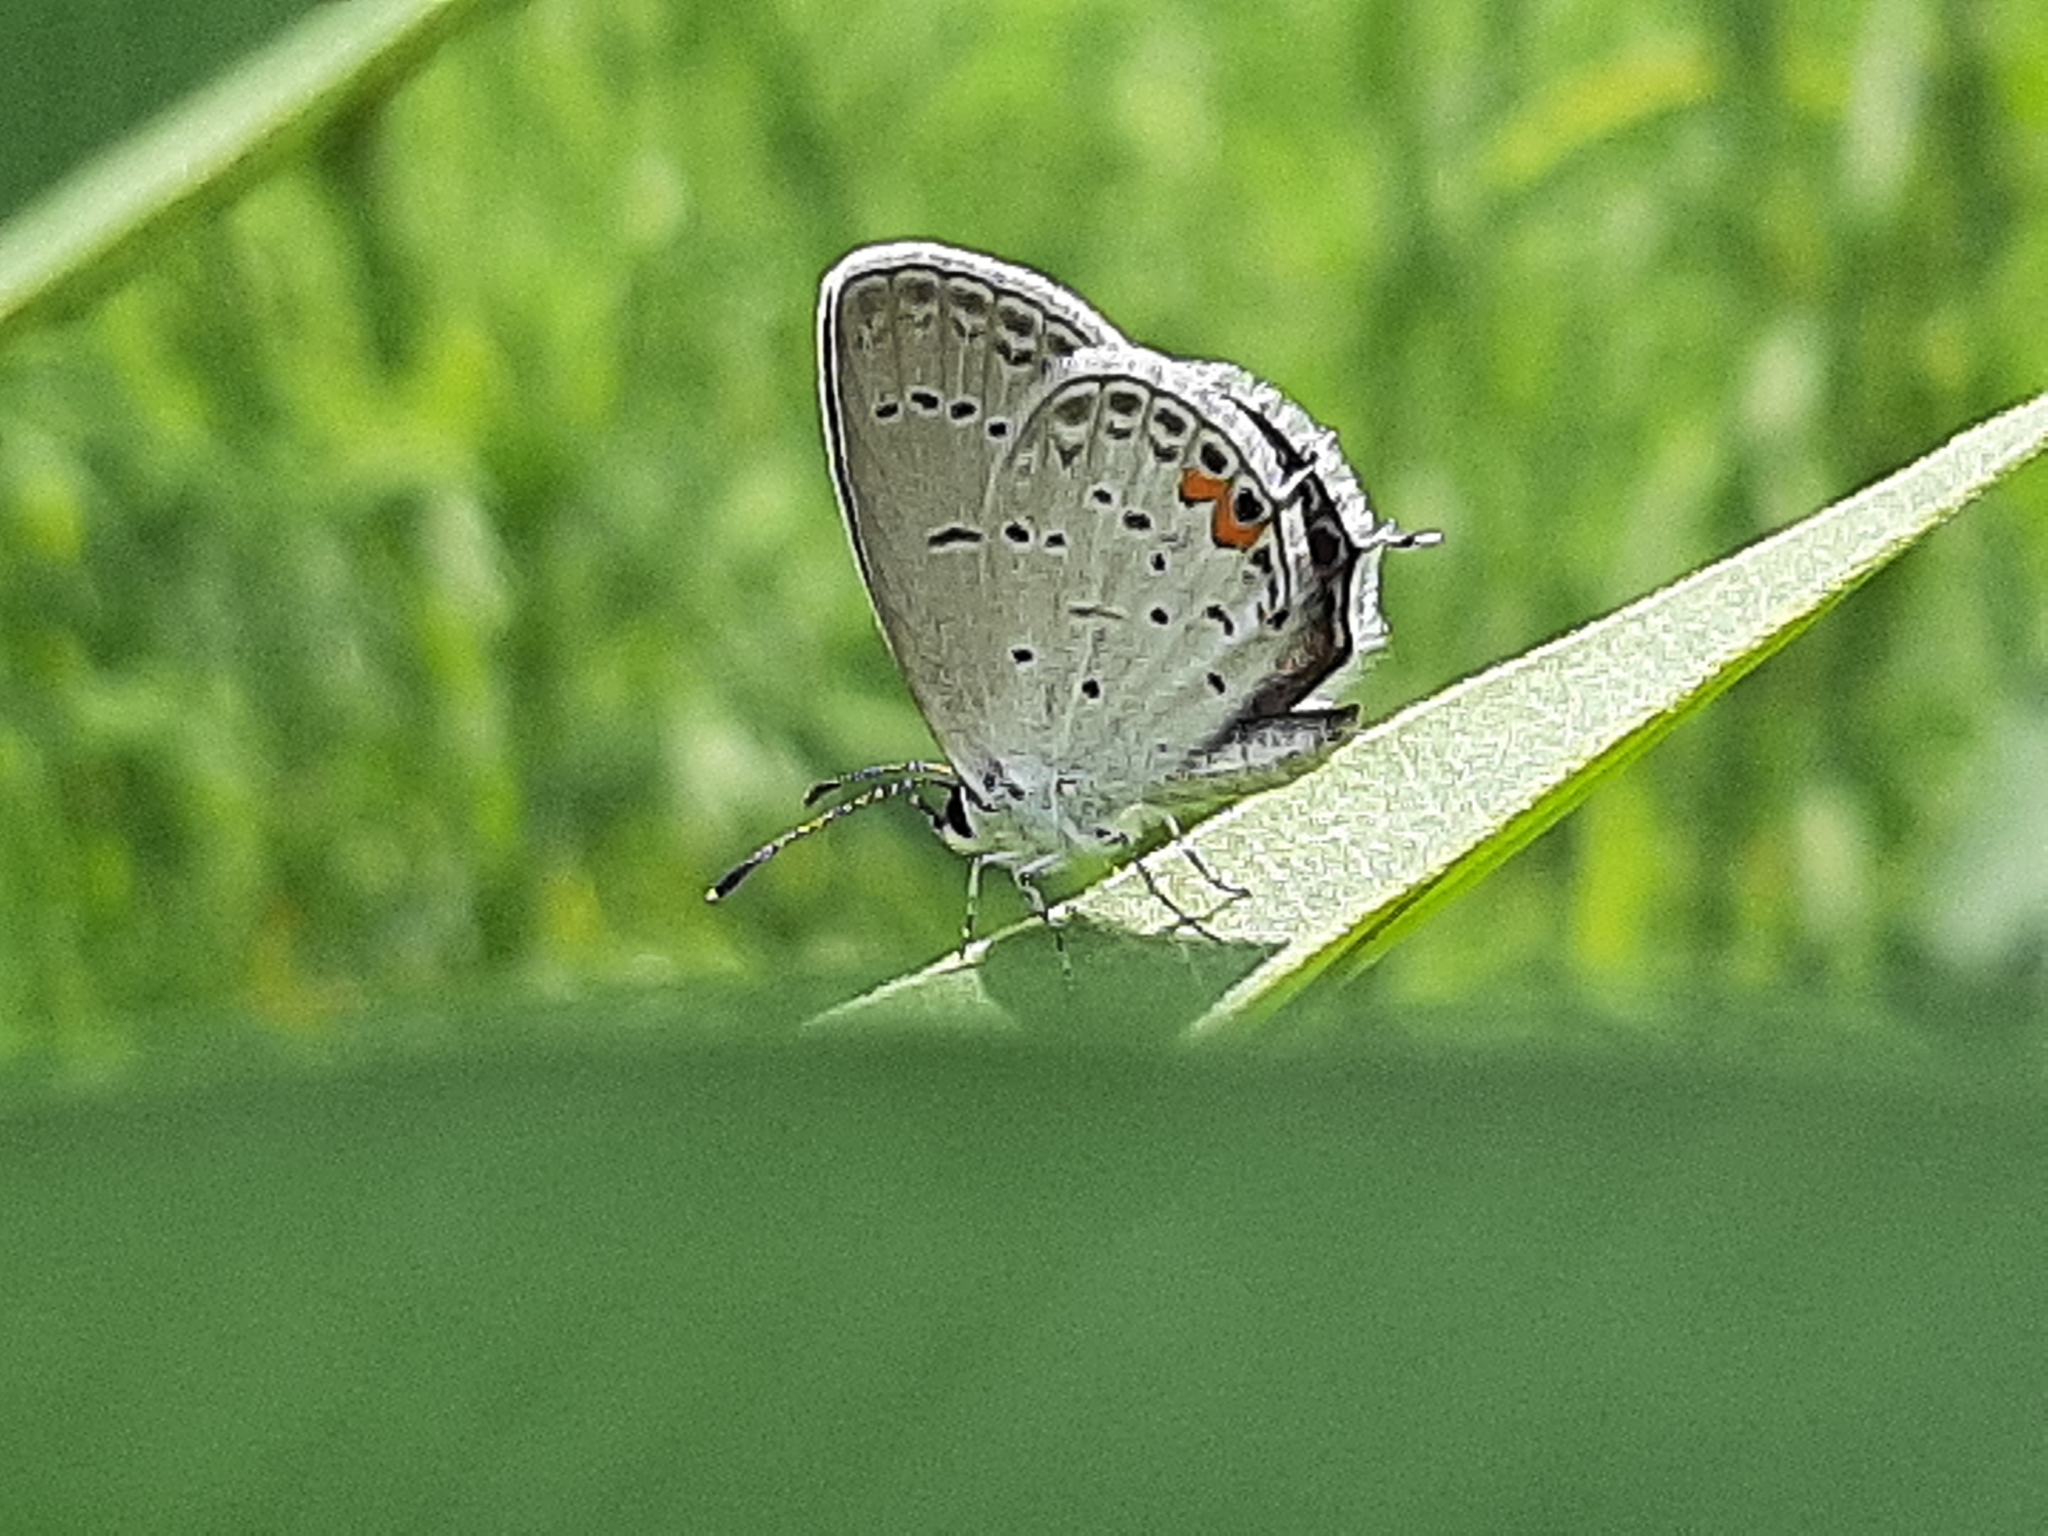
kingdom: Animalia
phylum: Arthropoda
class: Insecta
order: Lepidoptera
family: Lycaenidae
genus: Elkalyce
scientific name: Elkalyce comyntas
